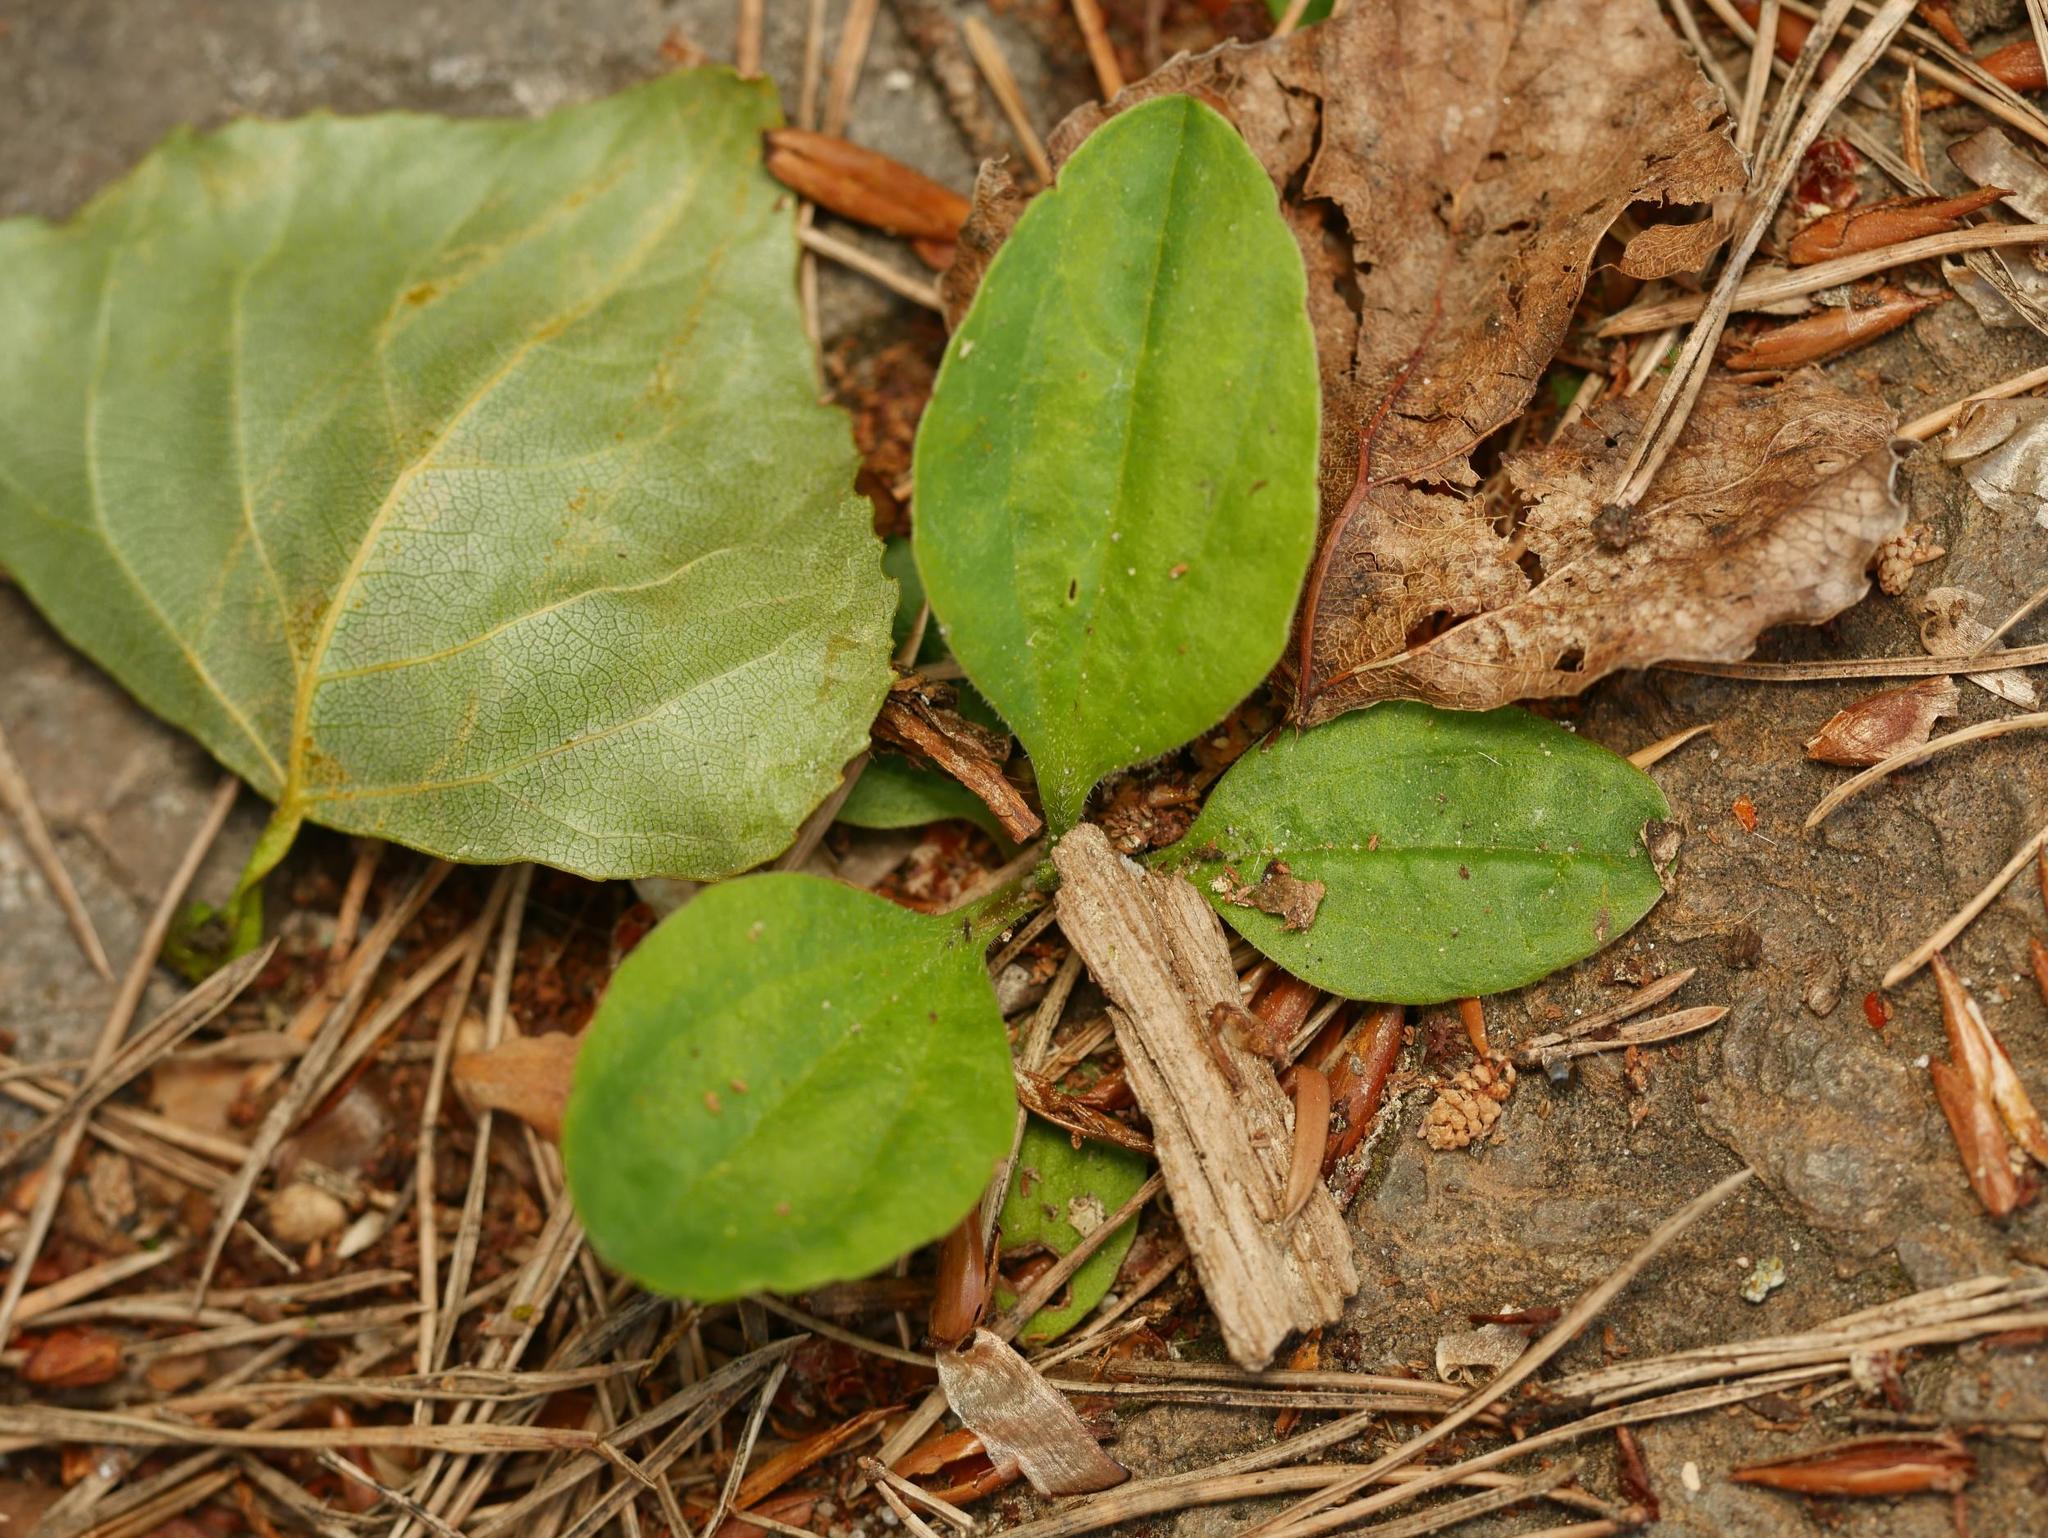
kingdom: Plantae
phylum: Tracheophyta
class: Magnoliopsida
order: Lamiales
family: Plantaginaceae
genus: Plantago
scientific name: Plantago major
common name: Common plantain
